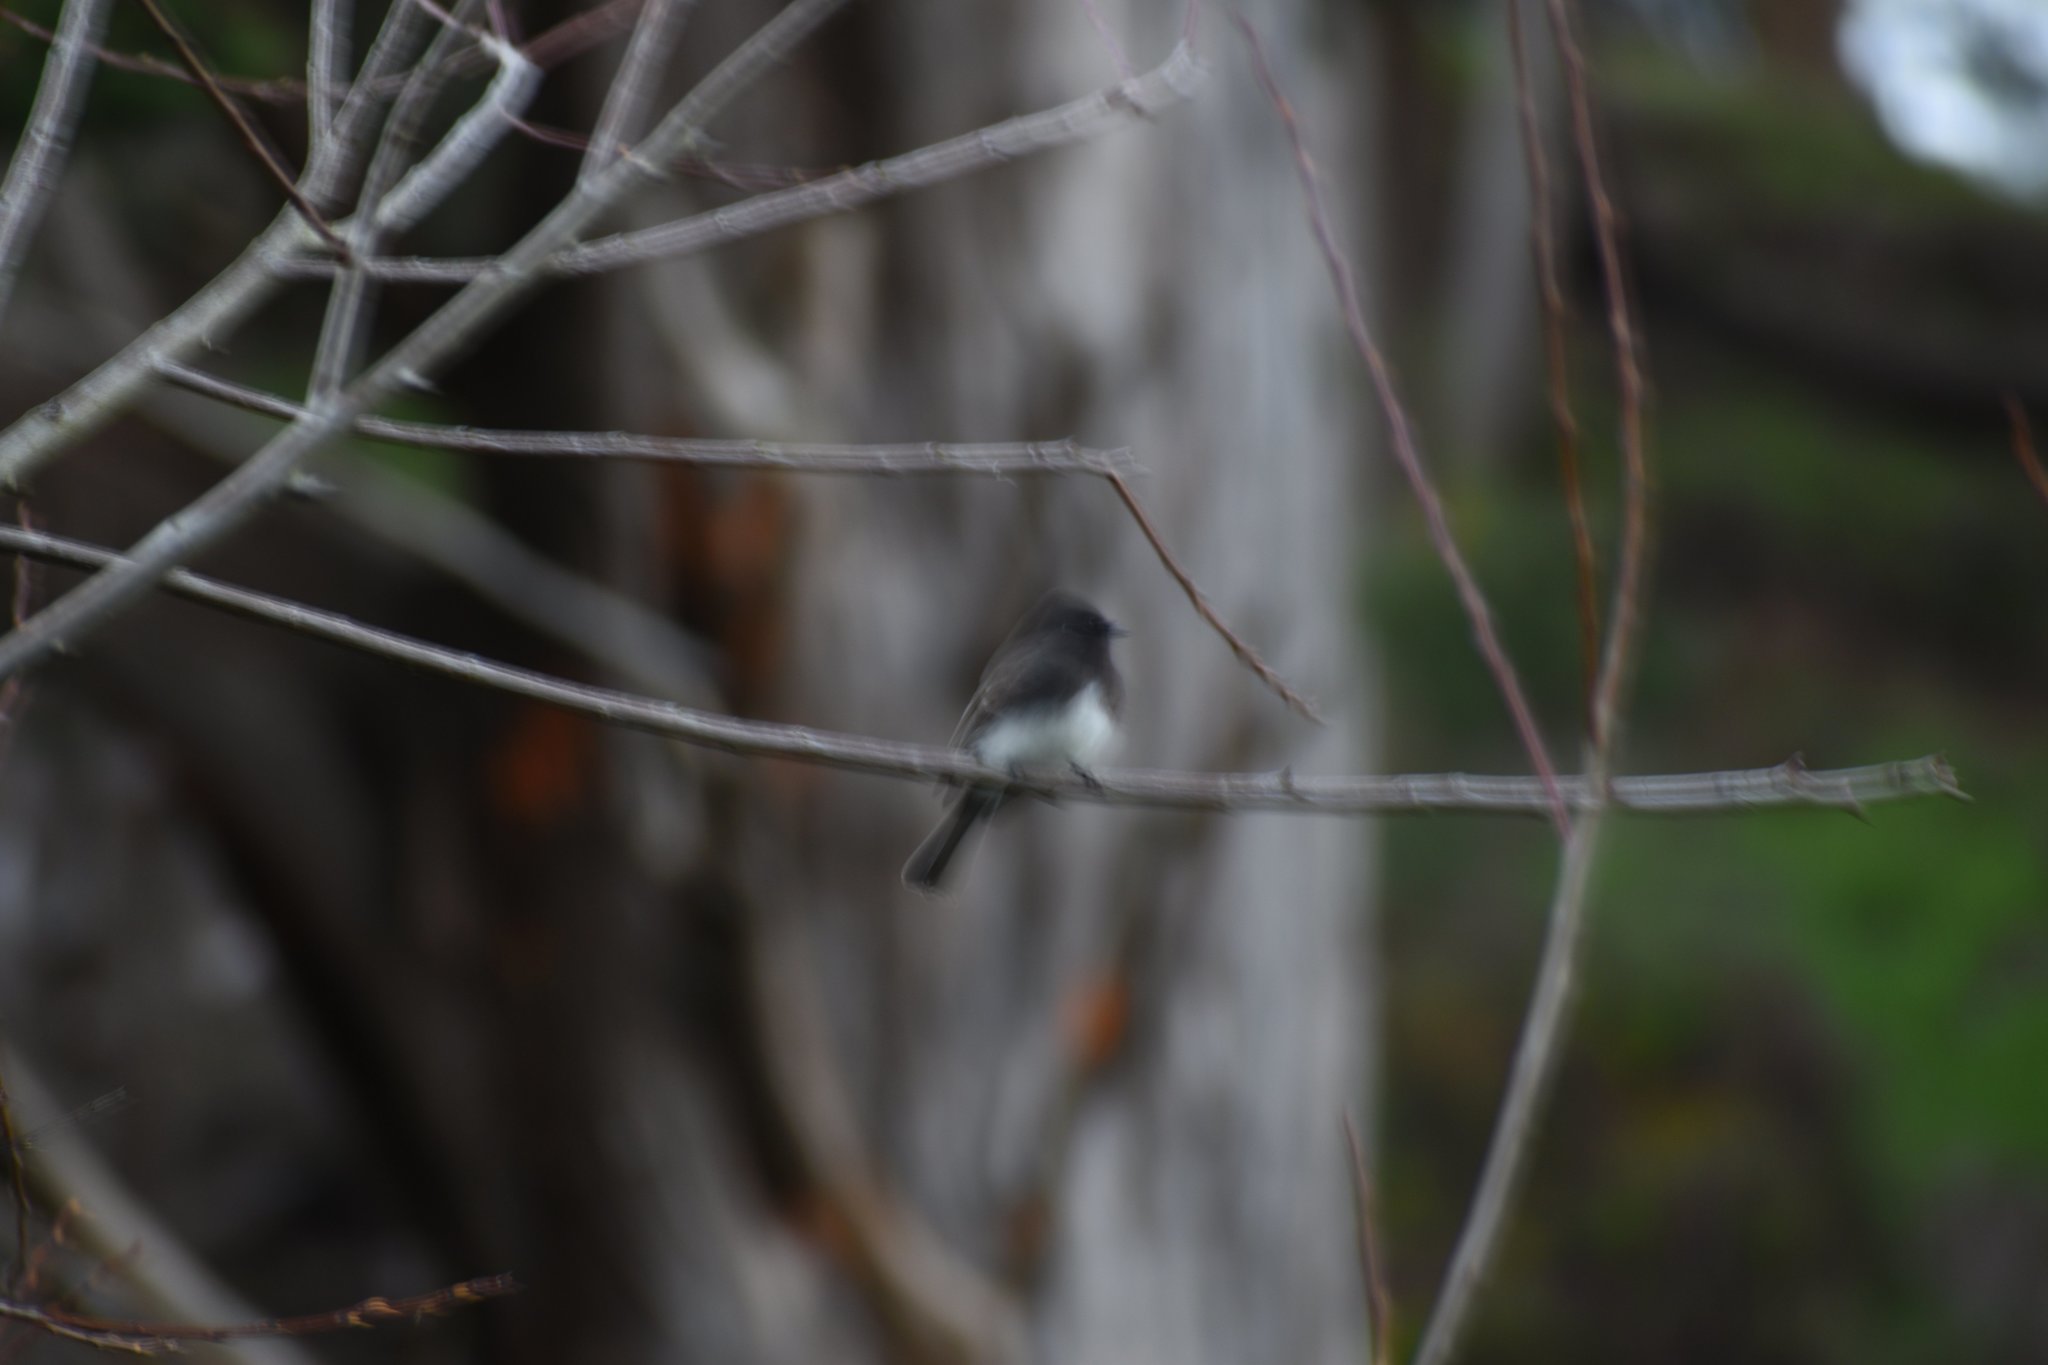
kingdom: Animalia
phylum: Chordata
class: Aves
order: Passeriformes
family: Tyrannidae
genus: Sayornis
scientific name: Sayornis nigricans
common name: Black phoebe
